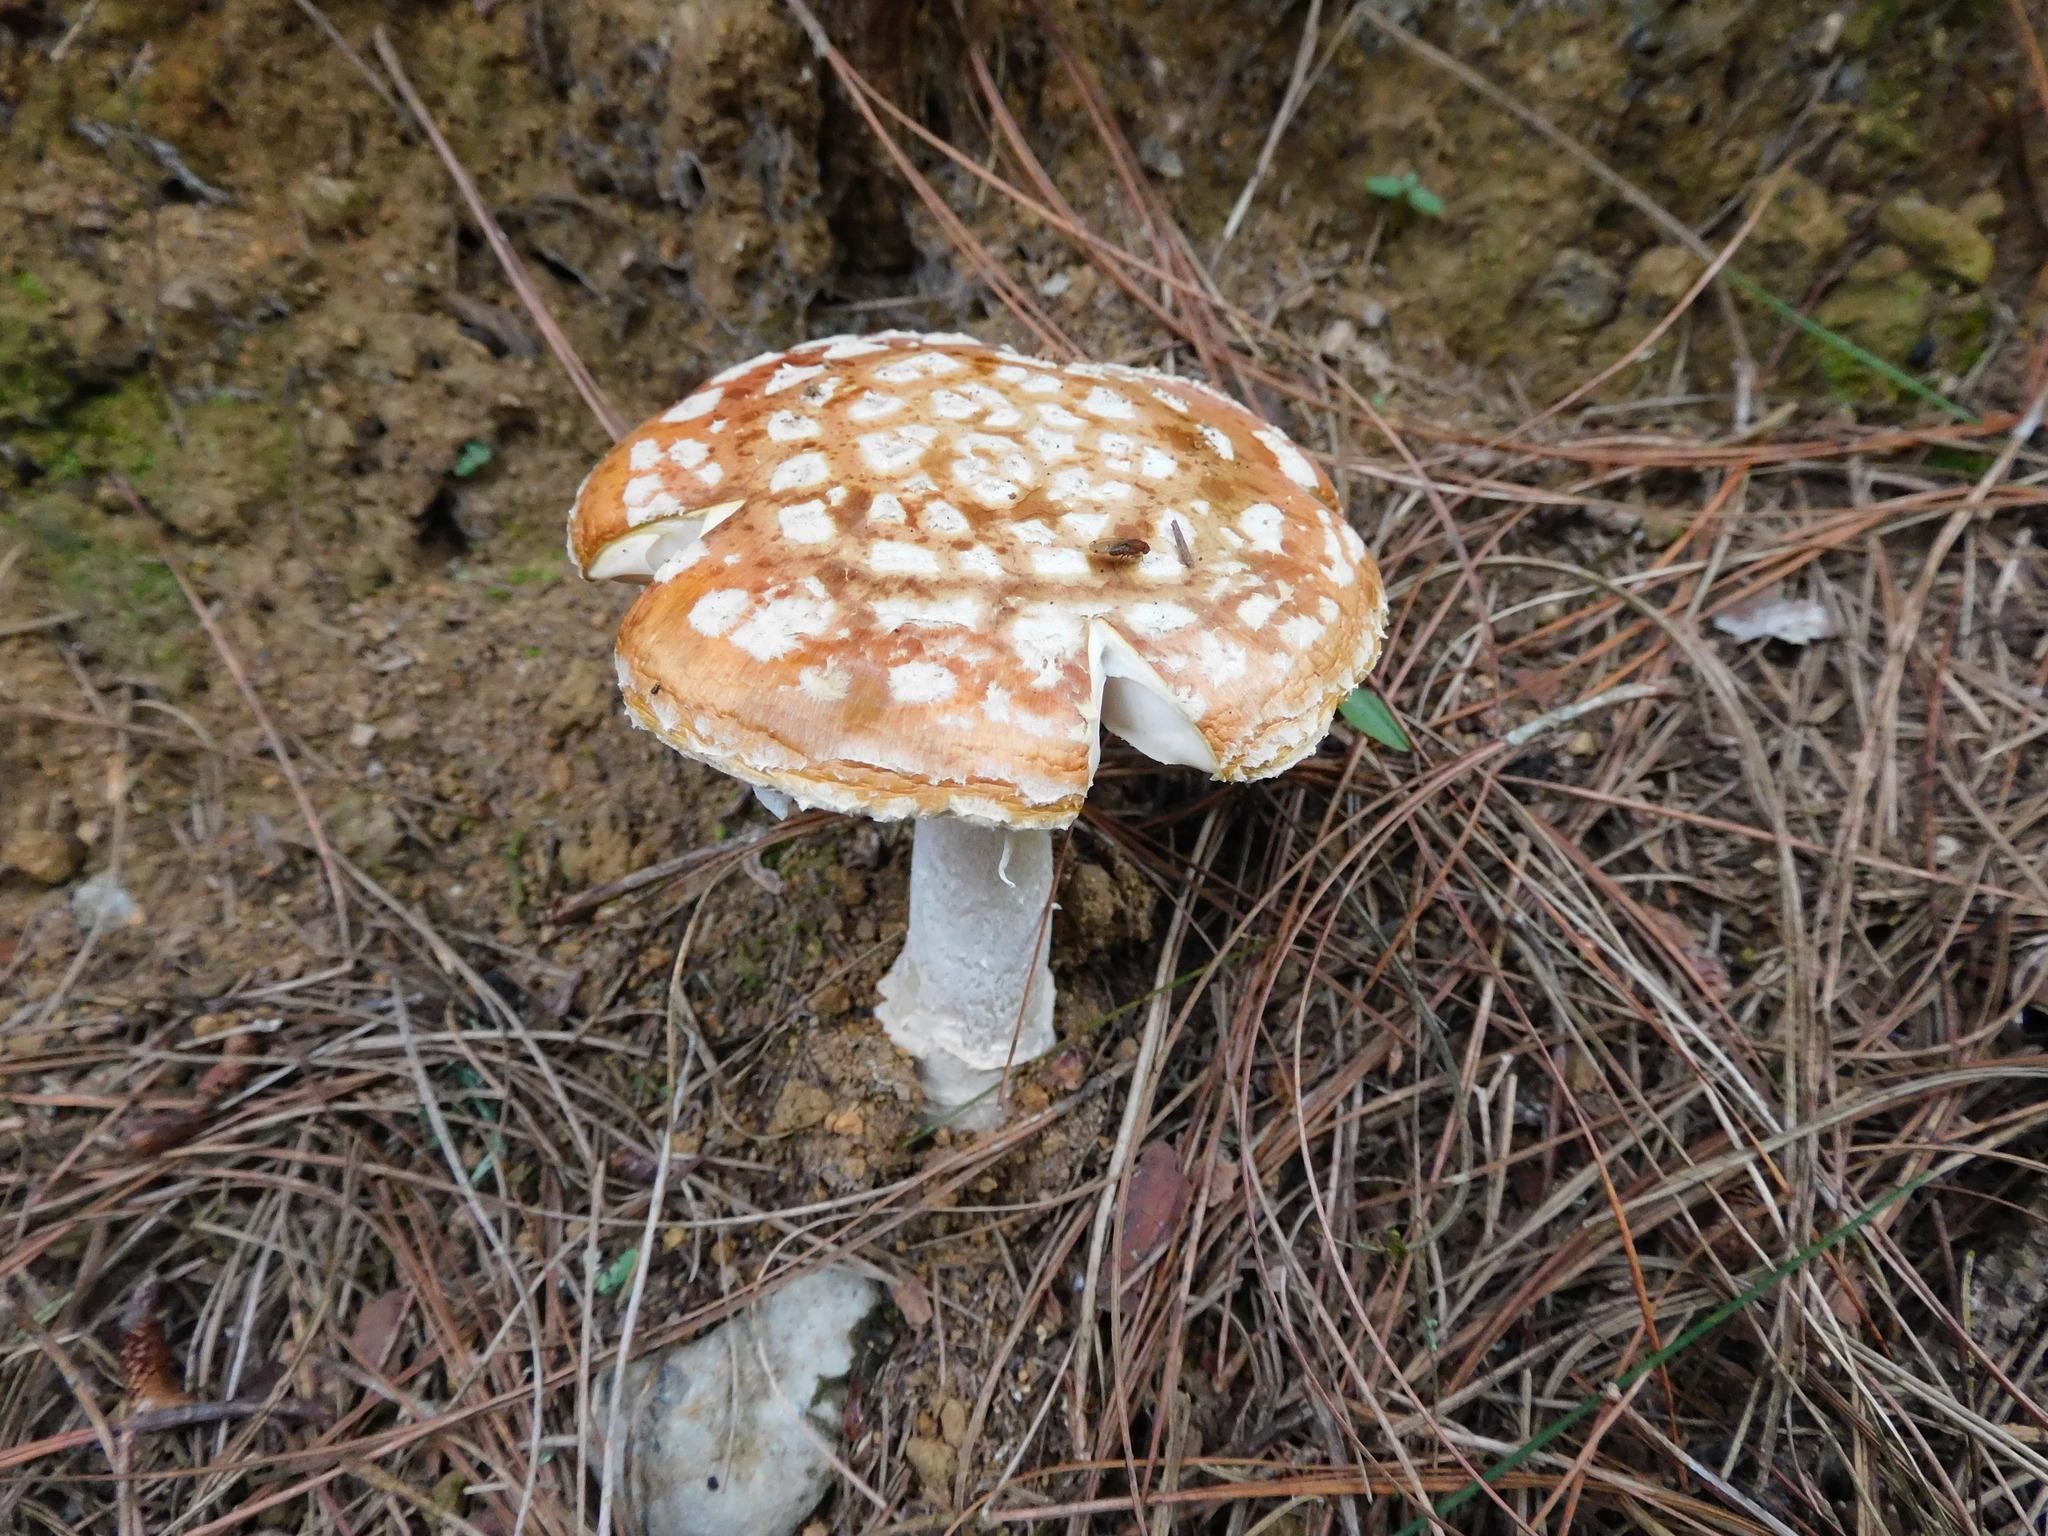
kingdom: Fungi
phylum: Basidiomycota
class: Agaricomycetes
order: Agaricales
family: Amanitaceae
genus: Amanita
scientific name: Amanita muscaria
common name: Fly agaric
